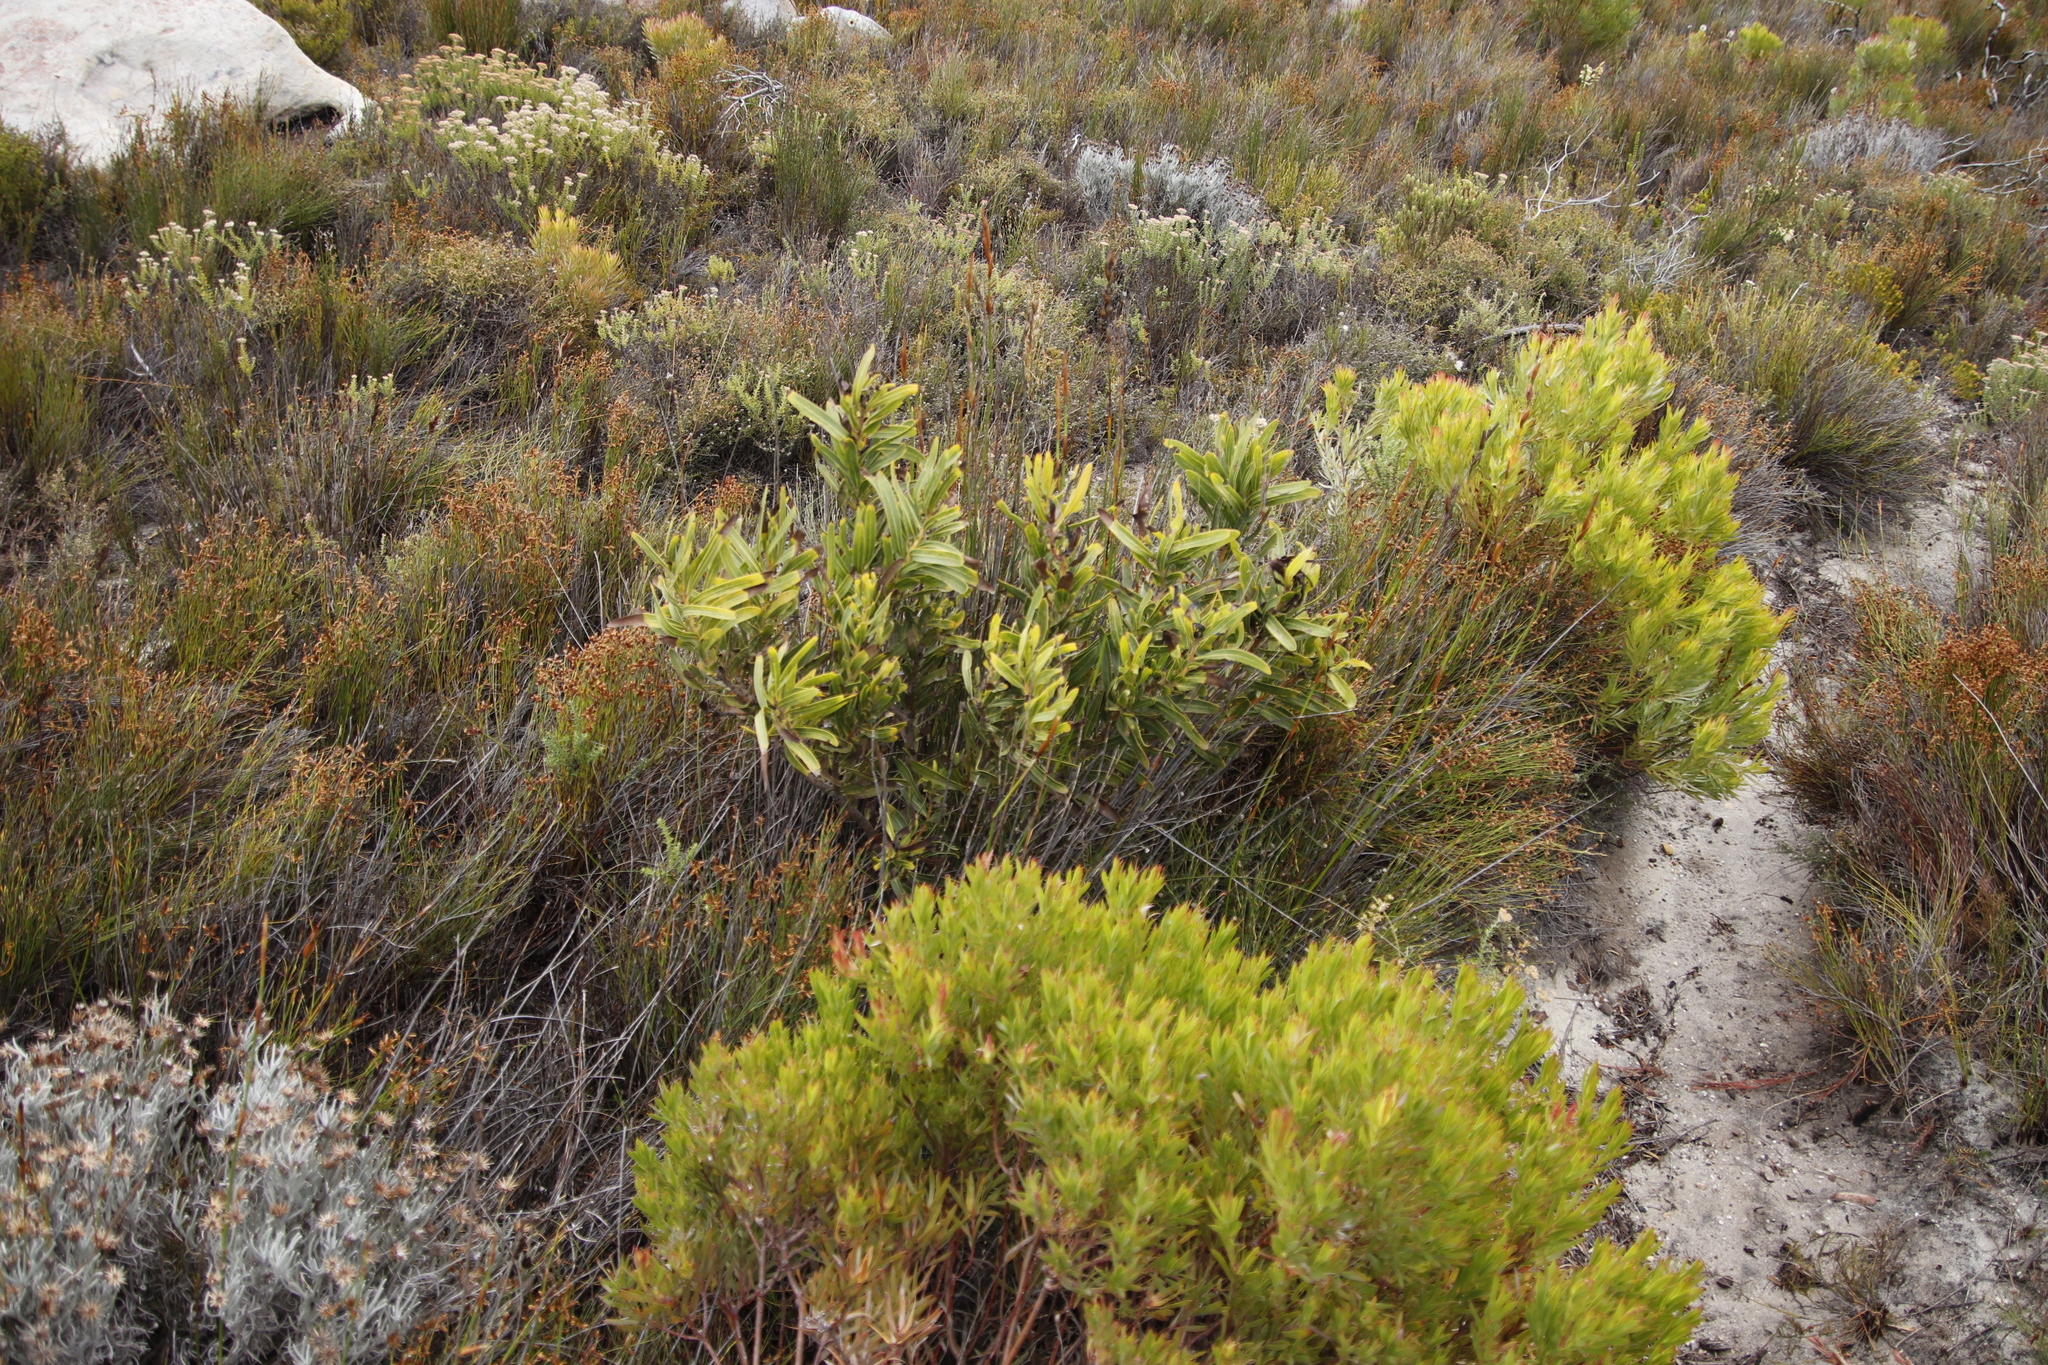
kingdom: Plantae
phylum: Tracheophyta
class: Magnoliopsida
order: Proteales
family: Proteaceae
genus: Protea
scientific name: Protea lepidocarpodendron
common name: Black-bearded protea
